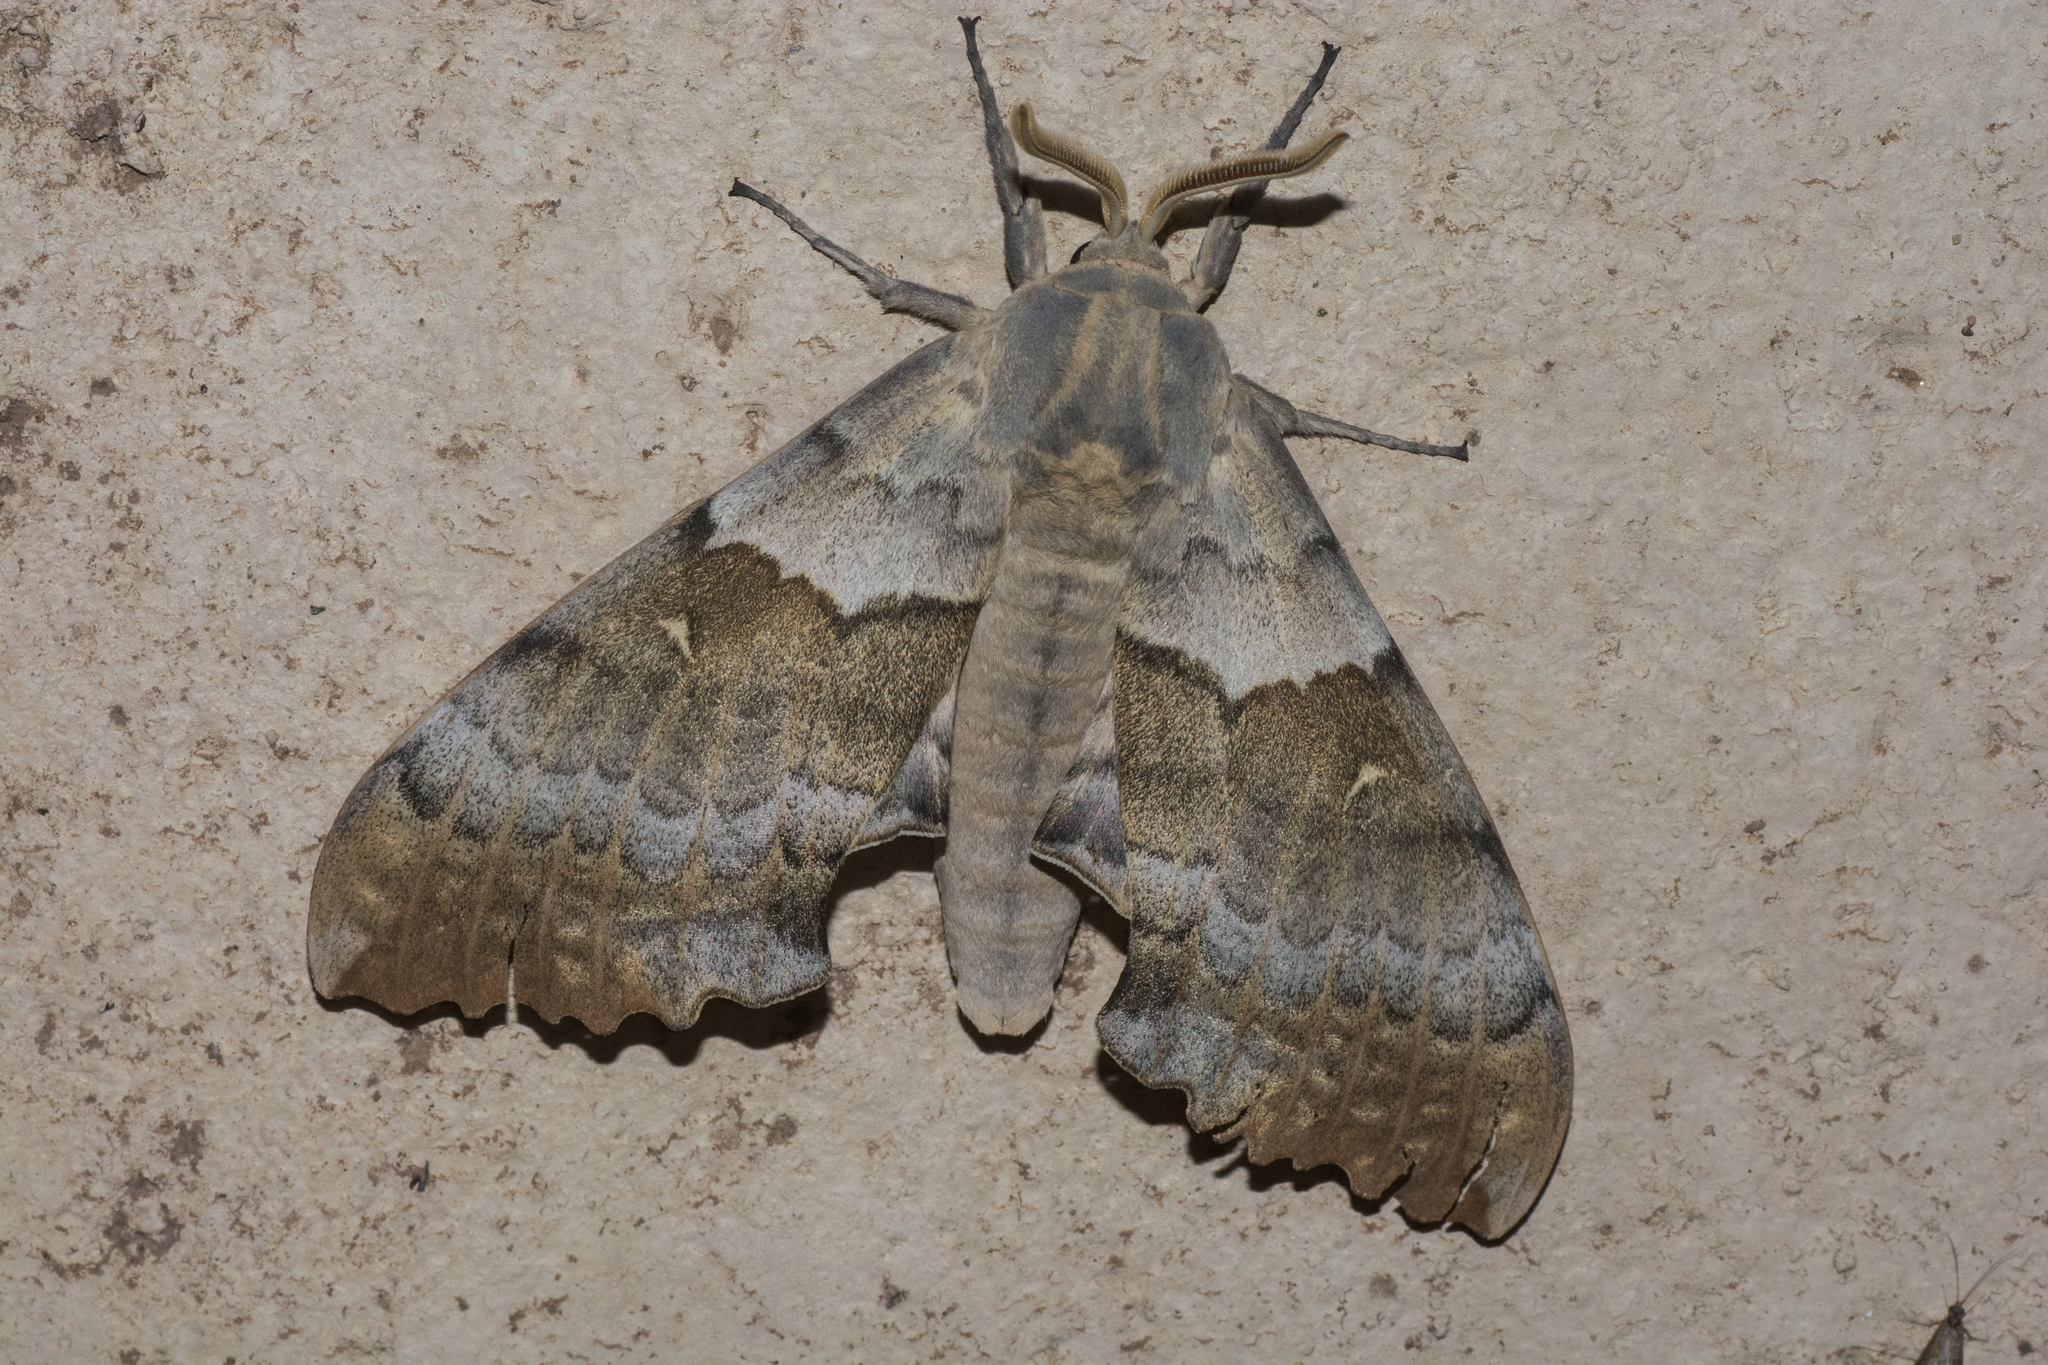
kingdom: Animalia
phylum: Arthropoda
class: Insecta
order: Lepidoptera
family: Sphingidae
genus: Pachysphinx
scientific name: Pachysphinx occidentalis
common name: Western poplar sphinx
